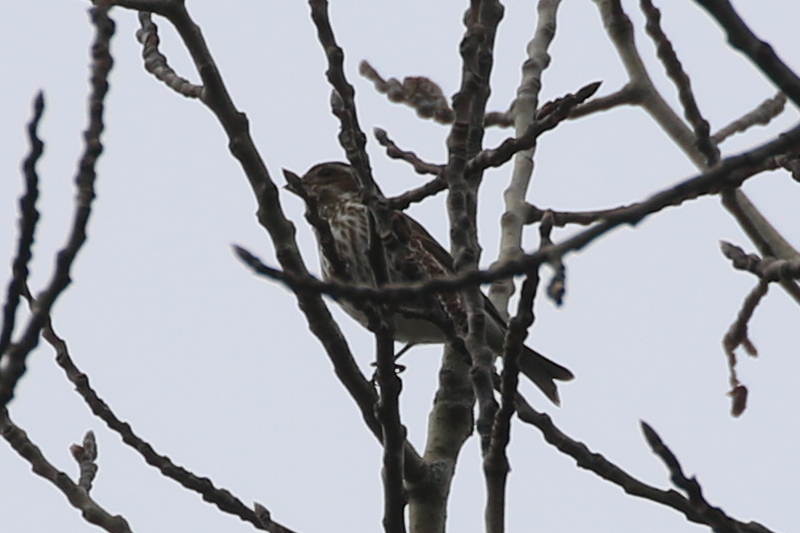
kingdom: Animalia
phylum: Chordata
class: Aves
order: Passeriformes
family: Fringillidae
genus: Haemorhous
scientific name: Haemorhous purpureus
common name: Purple finch
